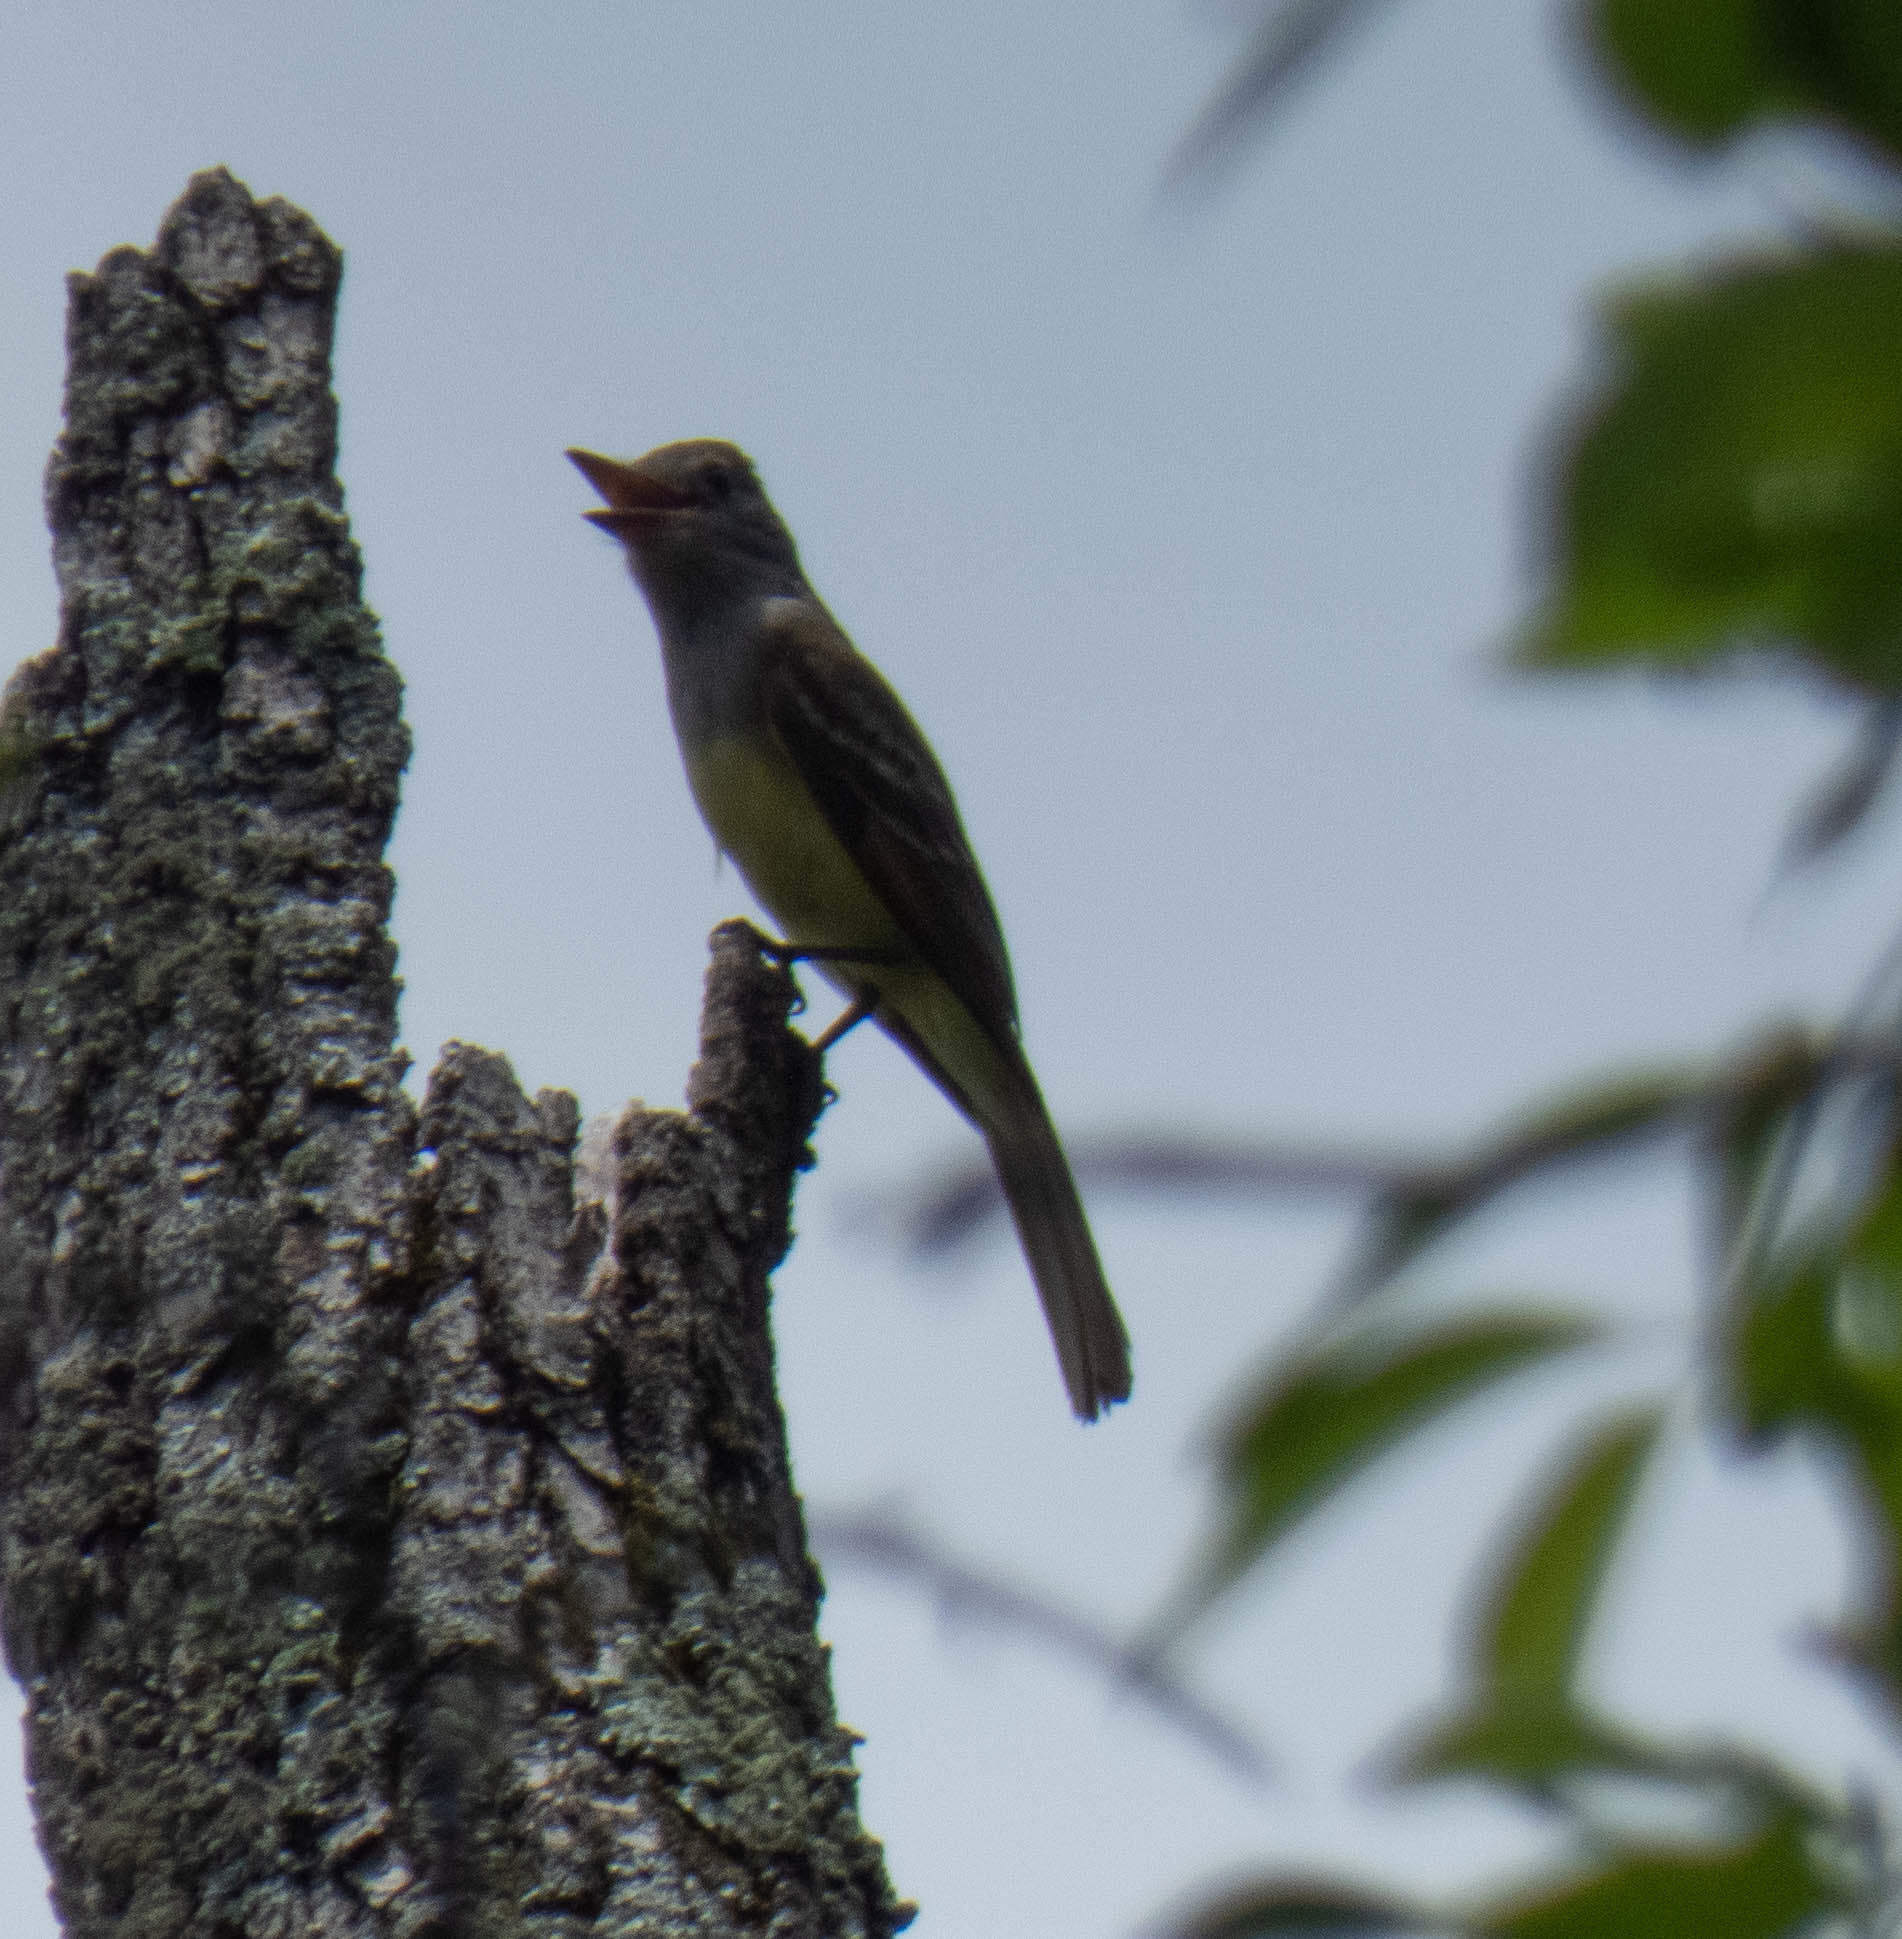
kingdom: Animalia
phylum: Chordata
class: Aves
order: Passeriformes
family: Tyrannidae
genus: Myiarchus
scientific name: Myiarchus crinitus
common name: Great crested flycatcher
